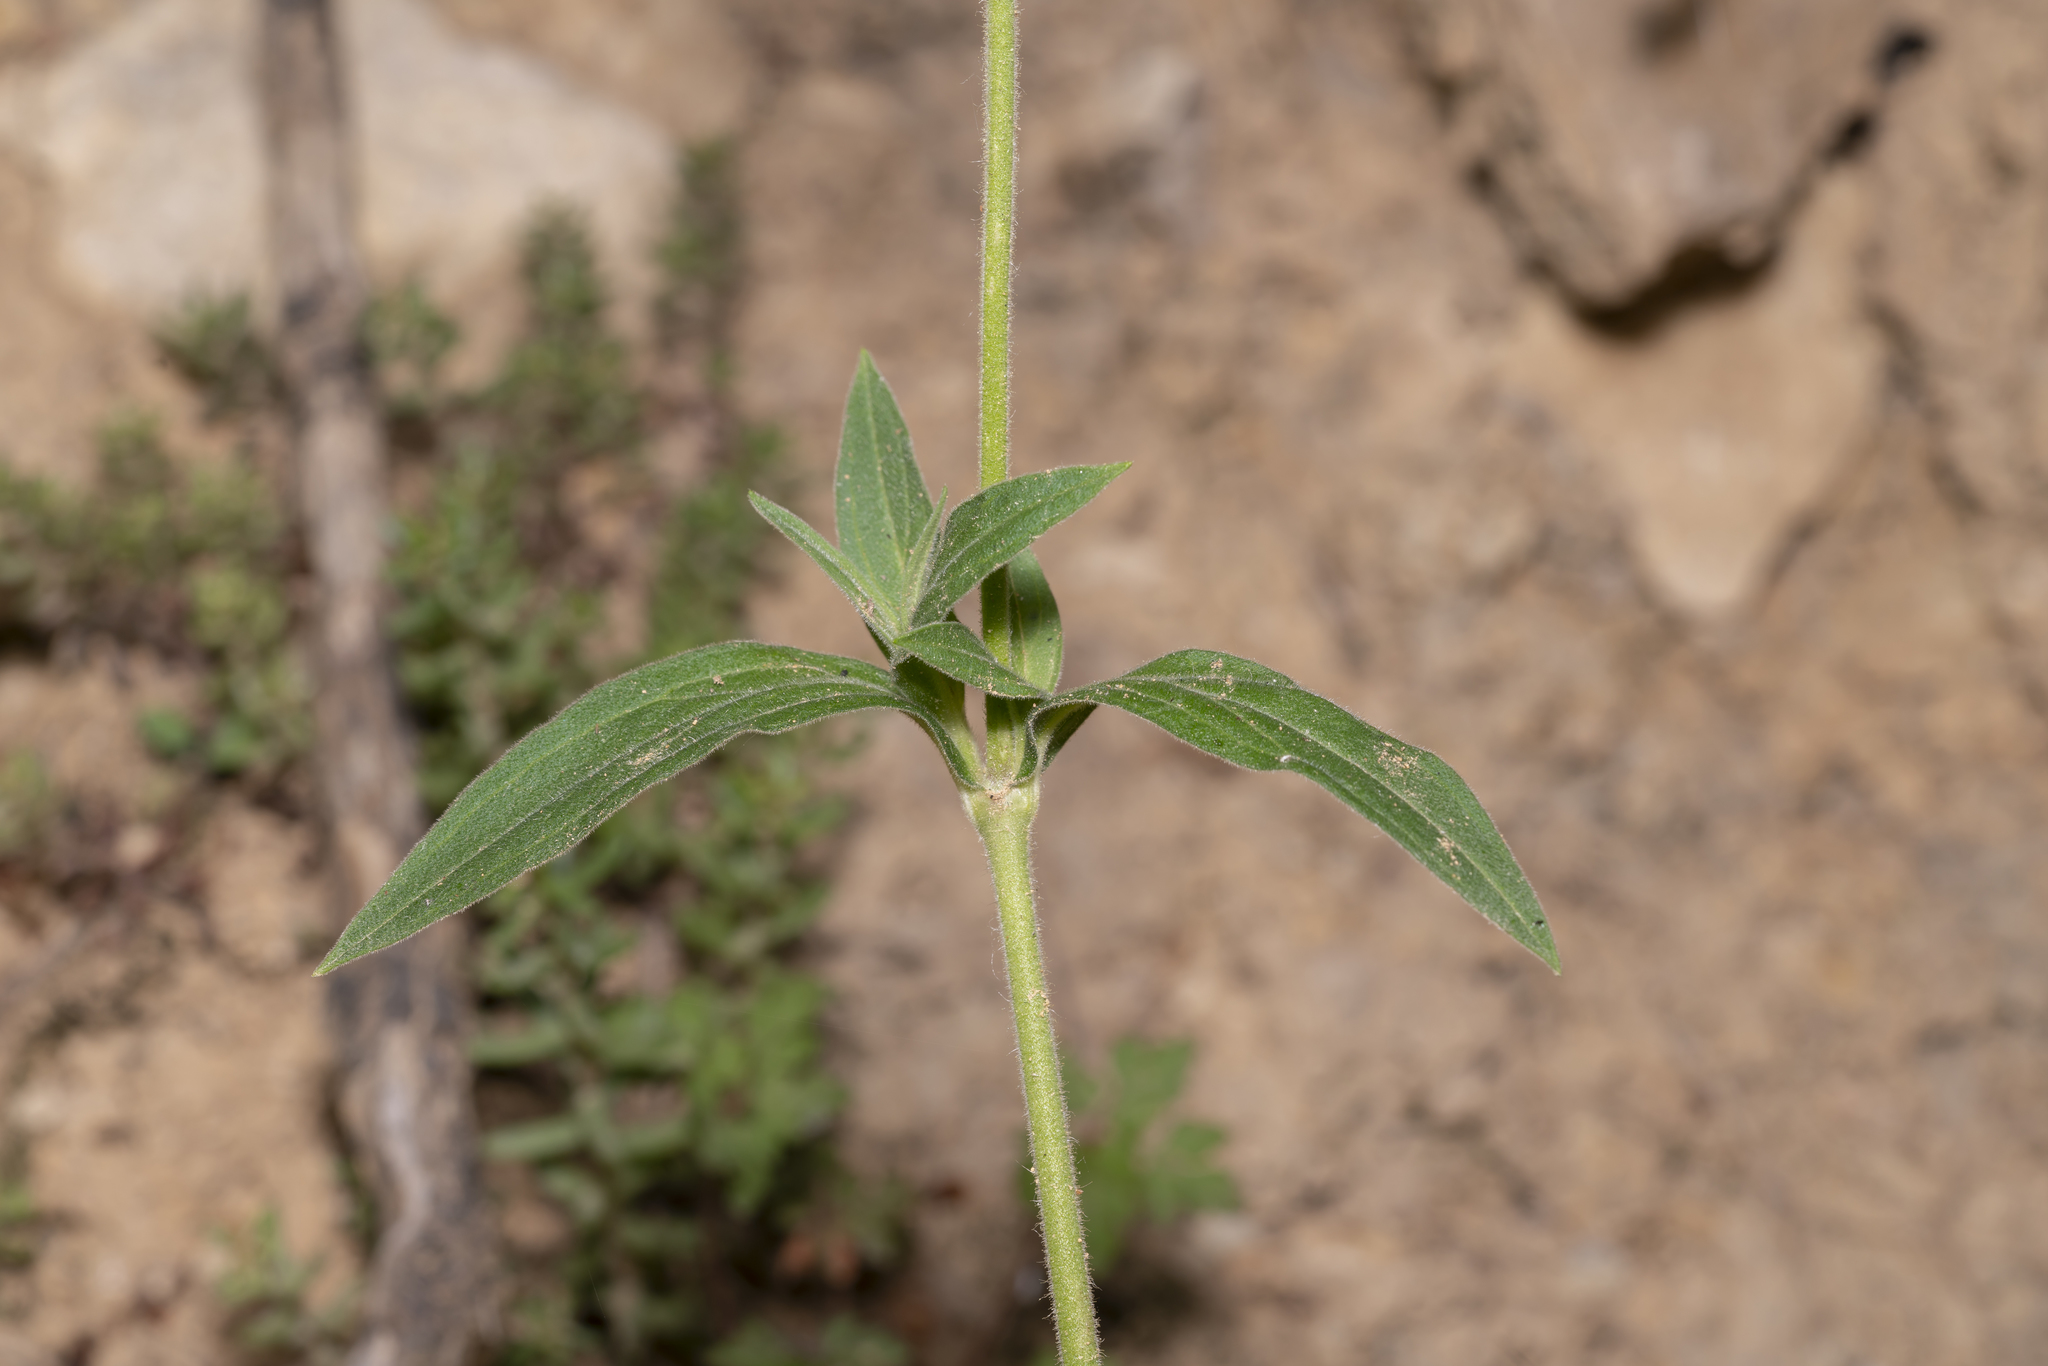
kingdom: Plantae
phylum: Tracheophyta
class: Magnoliopsida
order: Caryophyllales
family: Caryophyllaceae
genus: Silene
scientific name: Silene latifolia
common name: White campion
